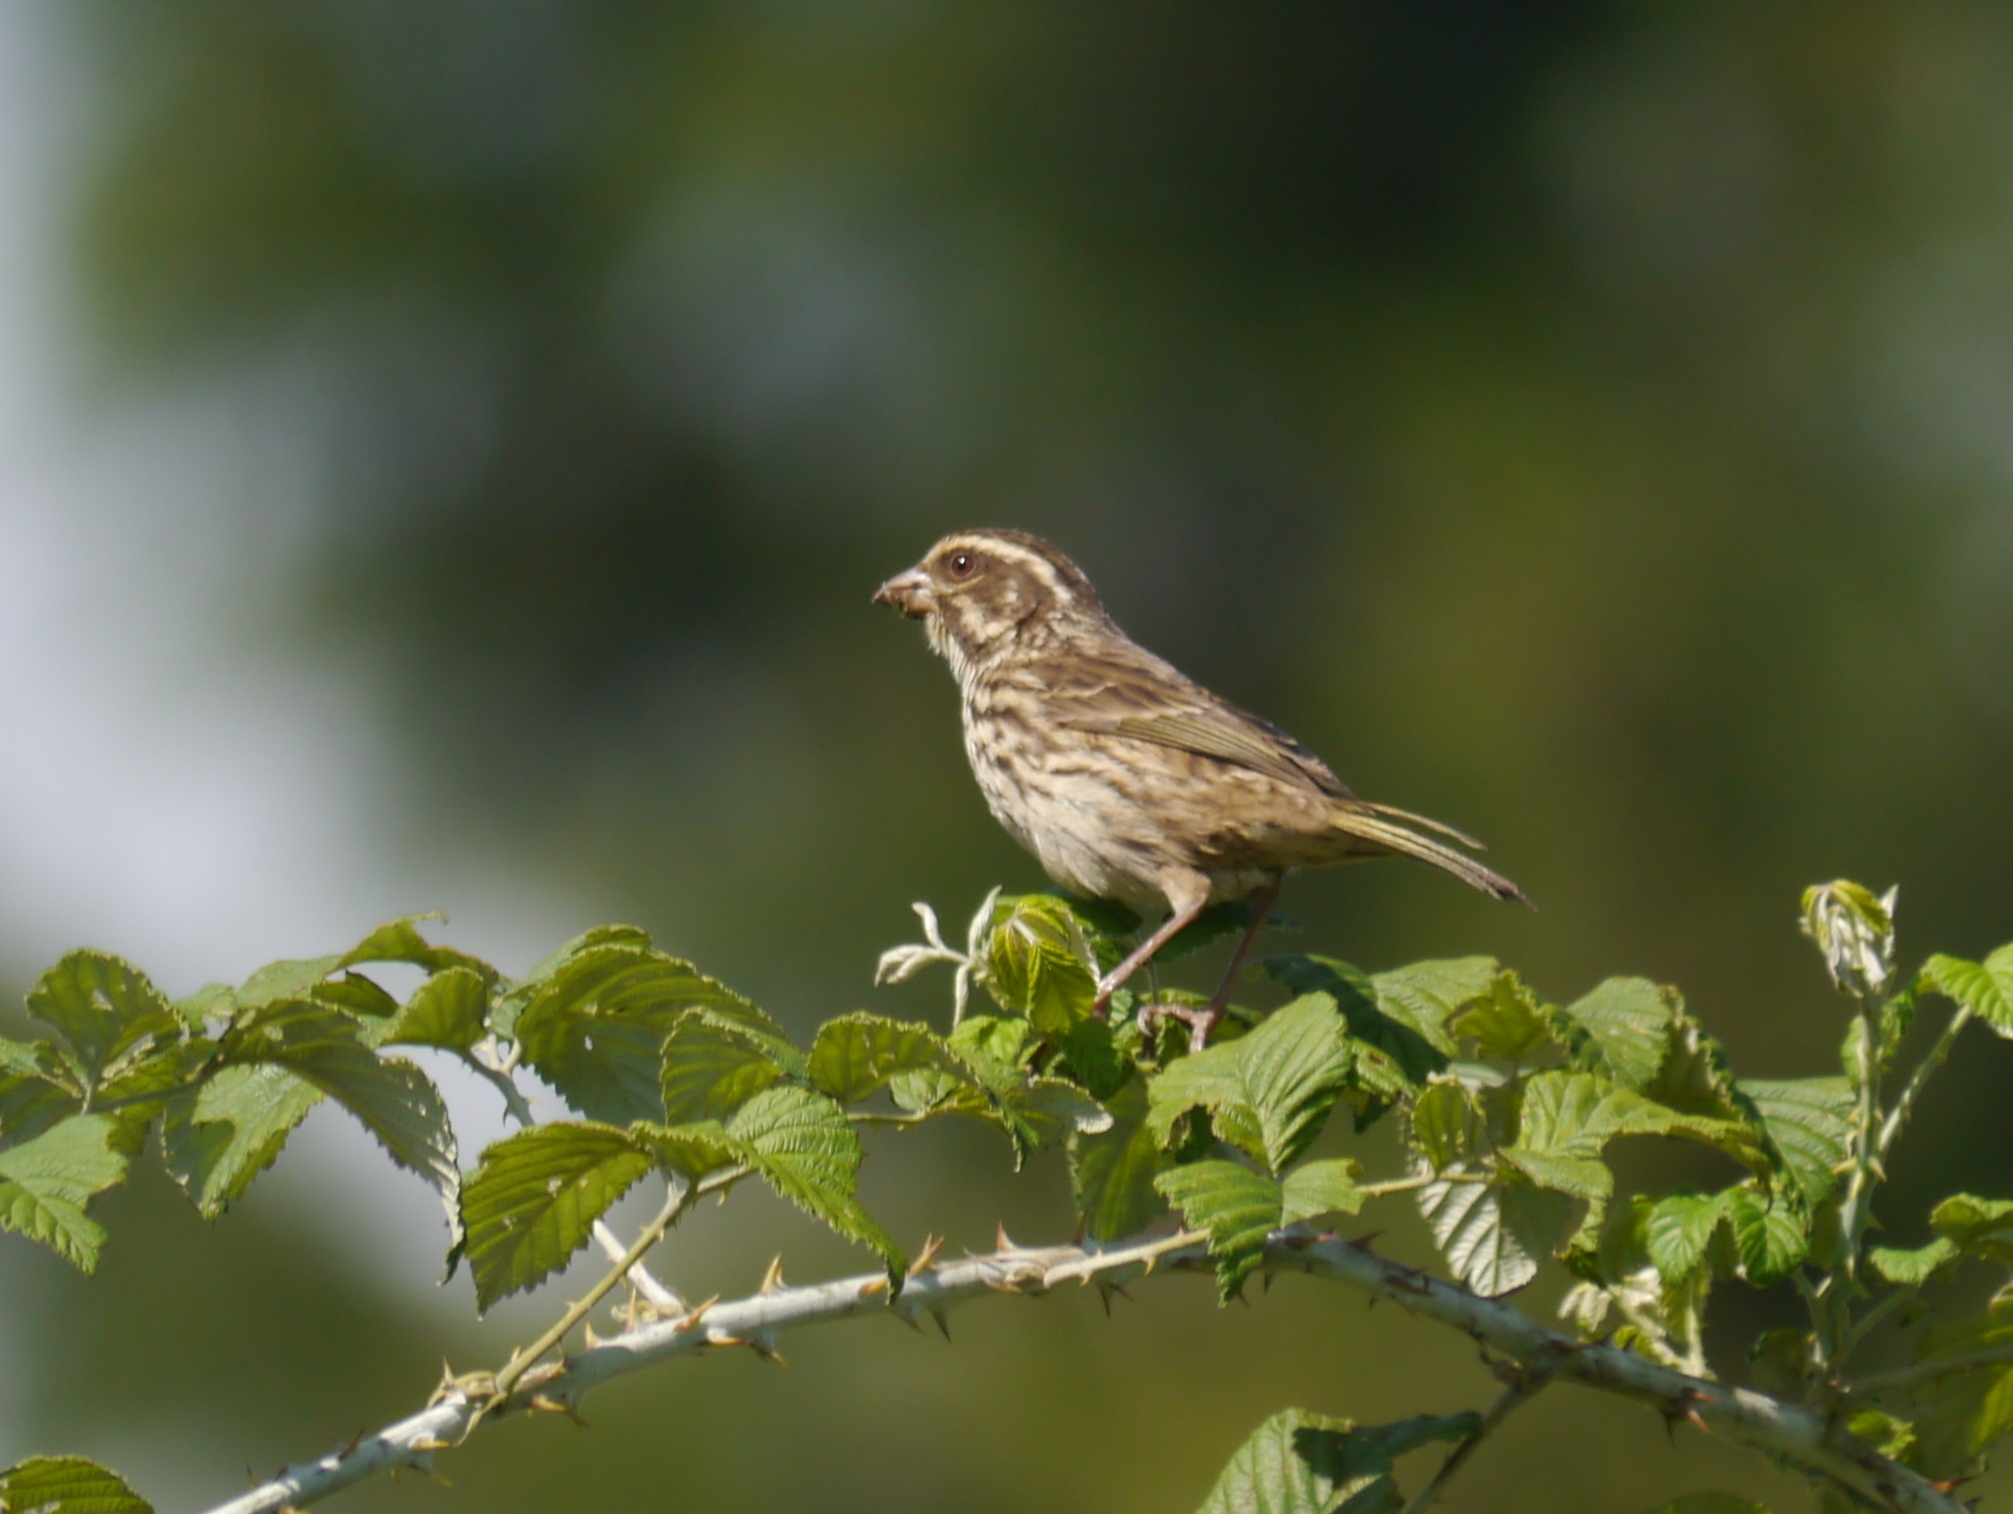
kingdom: Animalia
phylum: Chordata
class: Aves
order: Passeriformes
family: Fringillidae
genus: Crithagra
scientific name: Crithagra striolata
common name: Streaky seedeater
